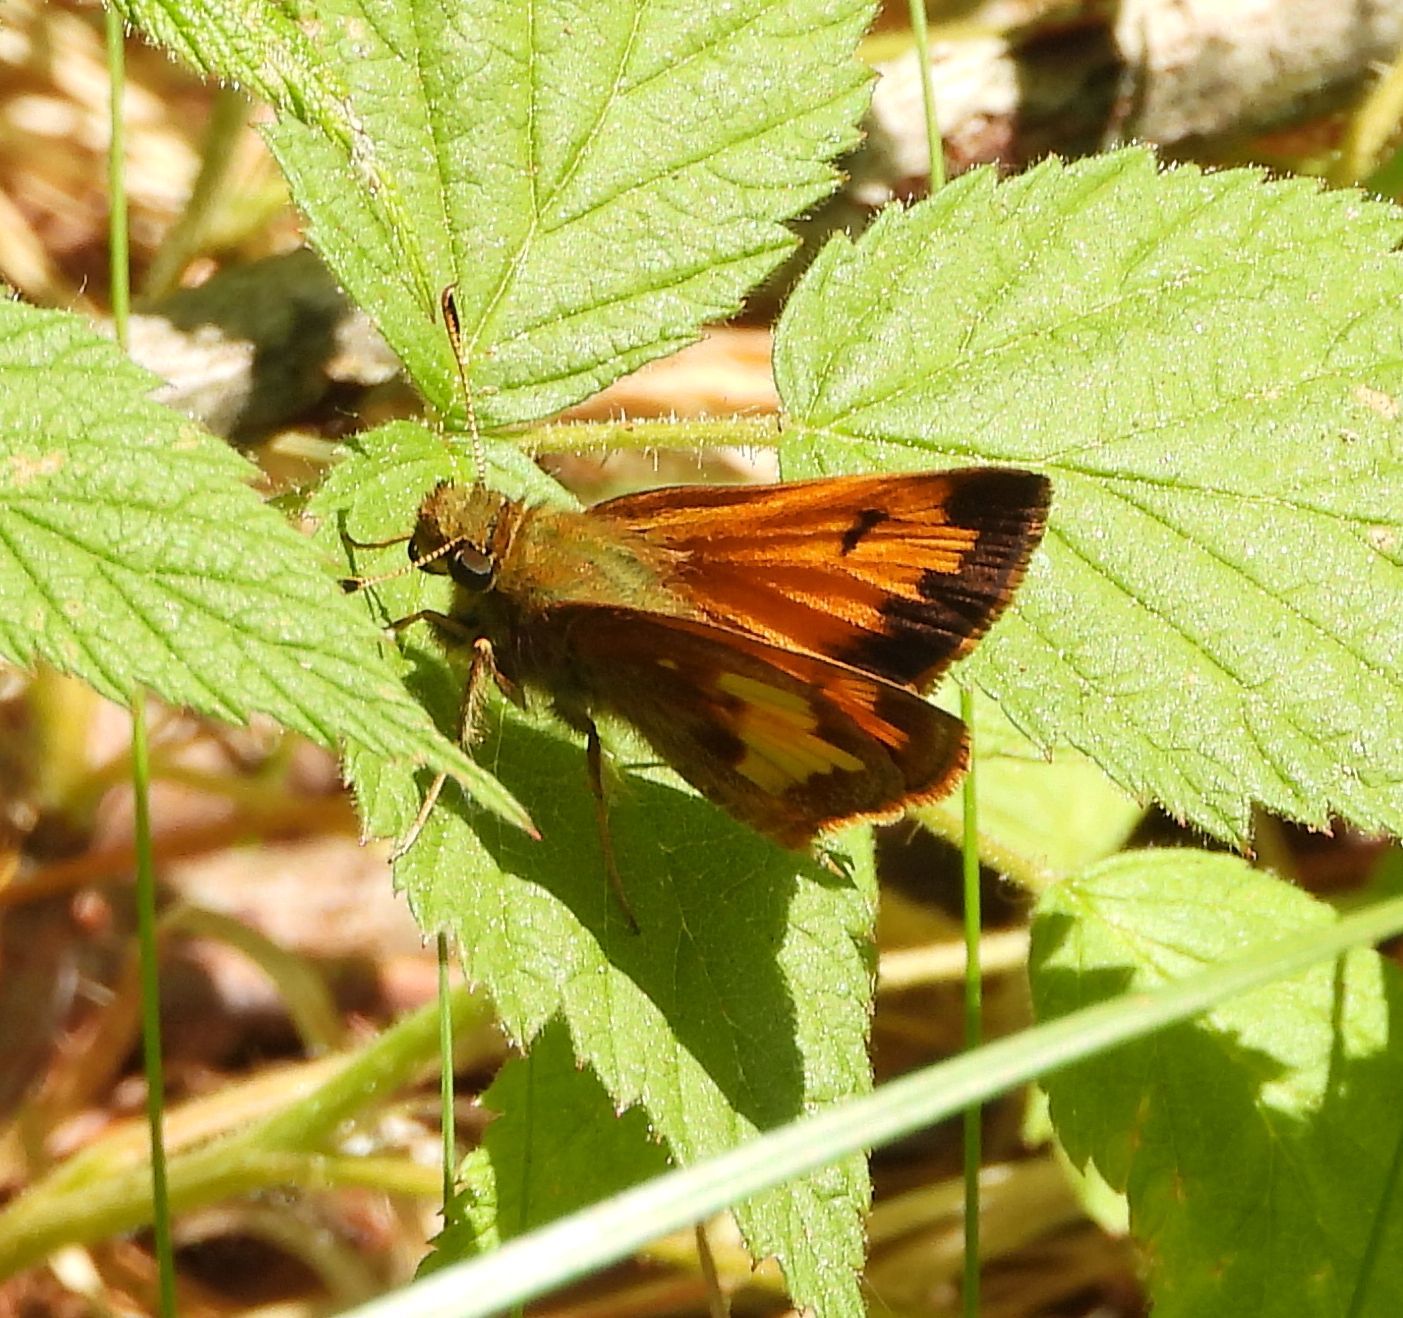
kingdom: Animalia
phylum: Arthropoda
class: Insecta
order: Lepidoptera
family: Hesperiidae
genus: Lon
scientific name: Lon hobomok
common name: Hobomok skipper
